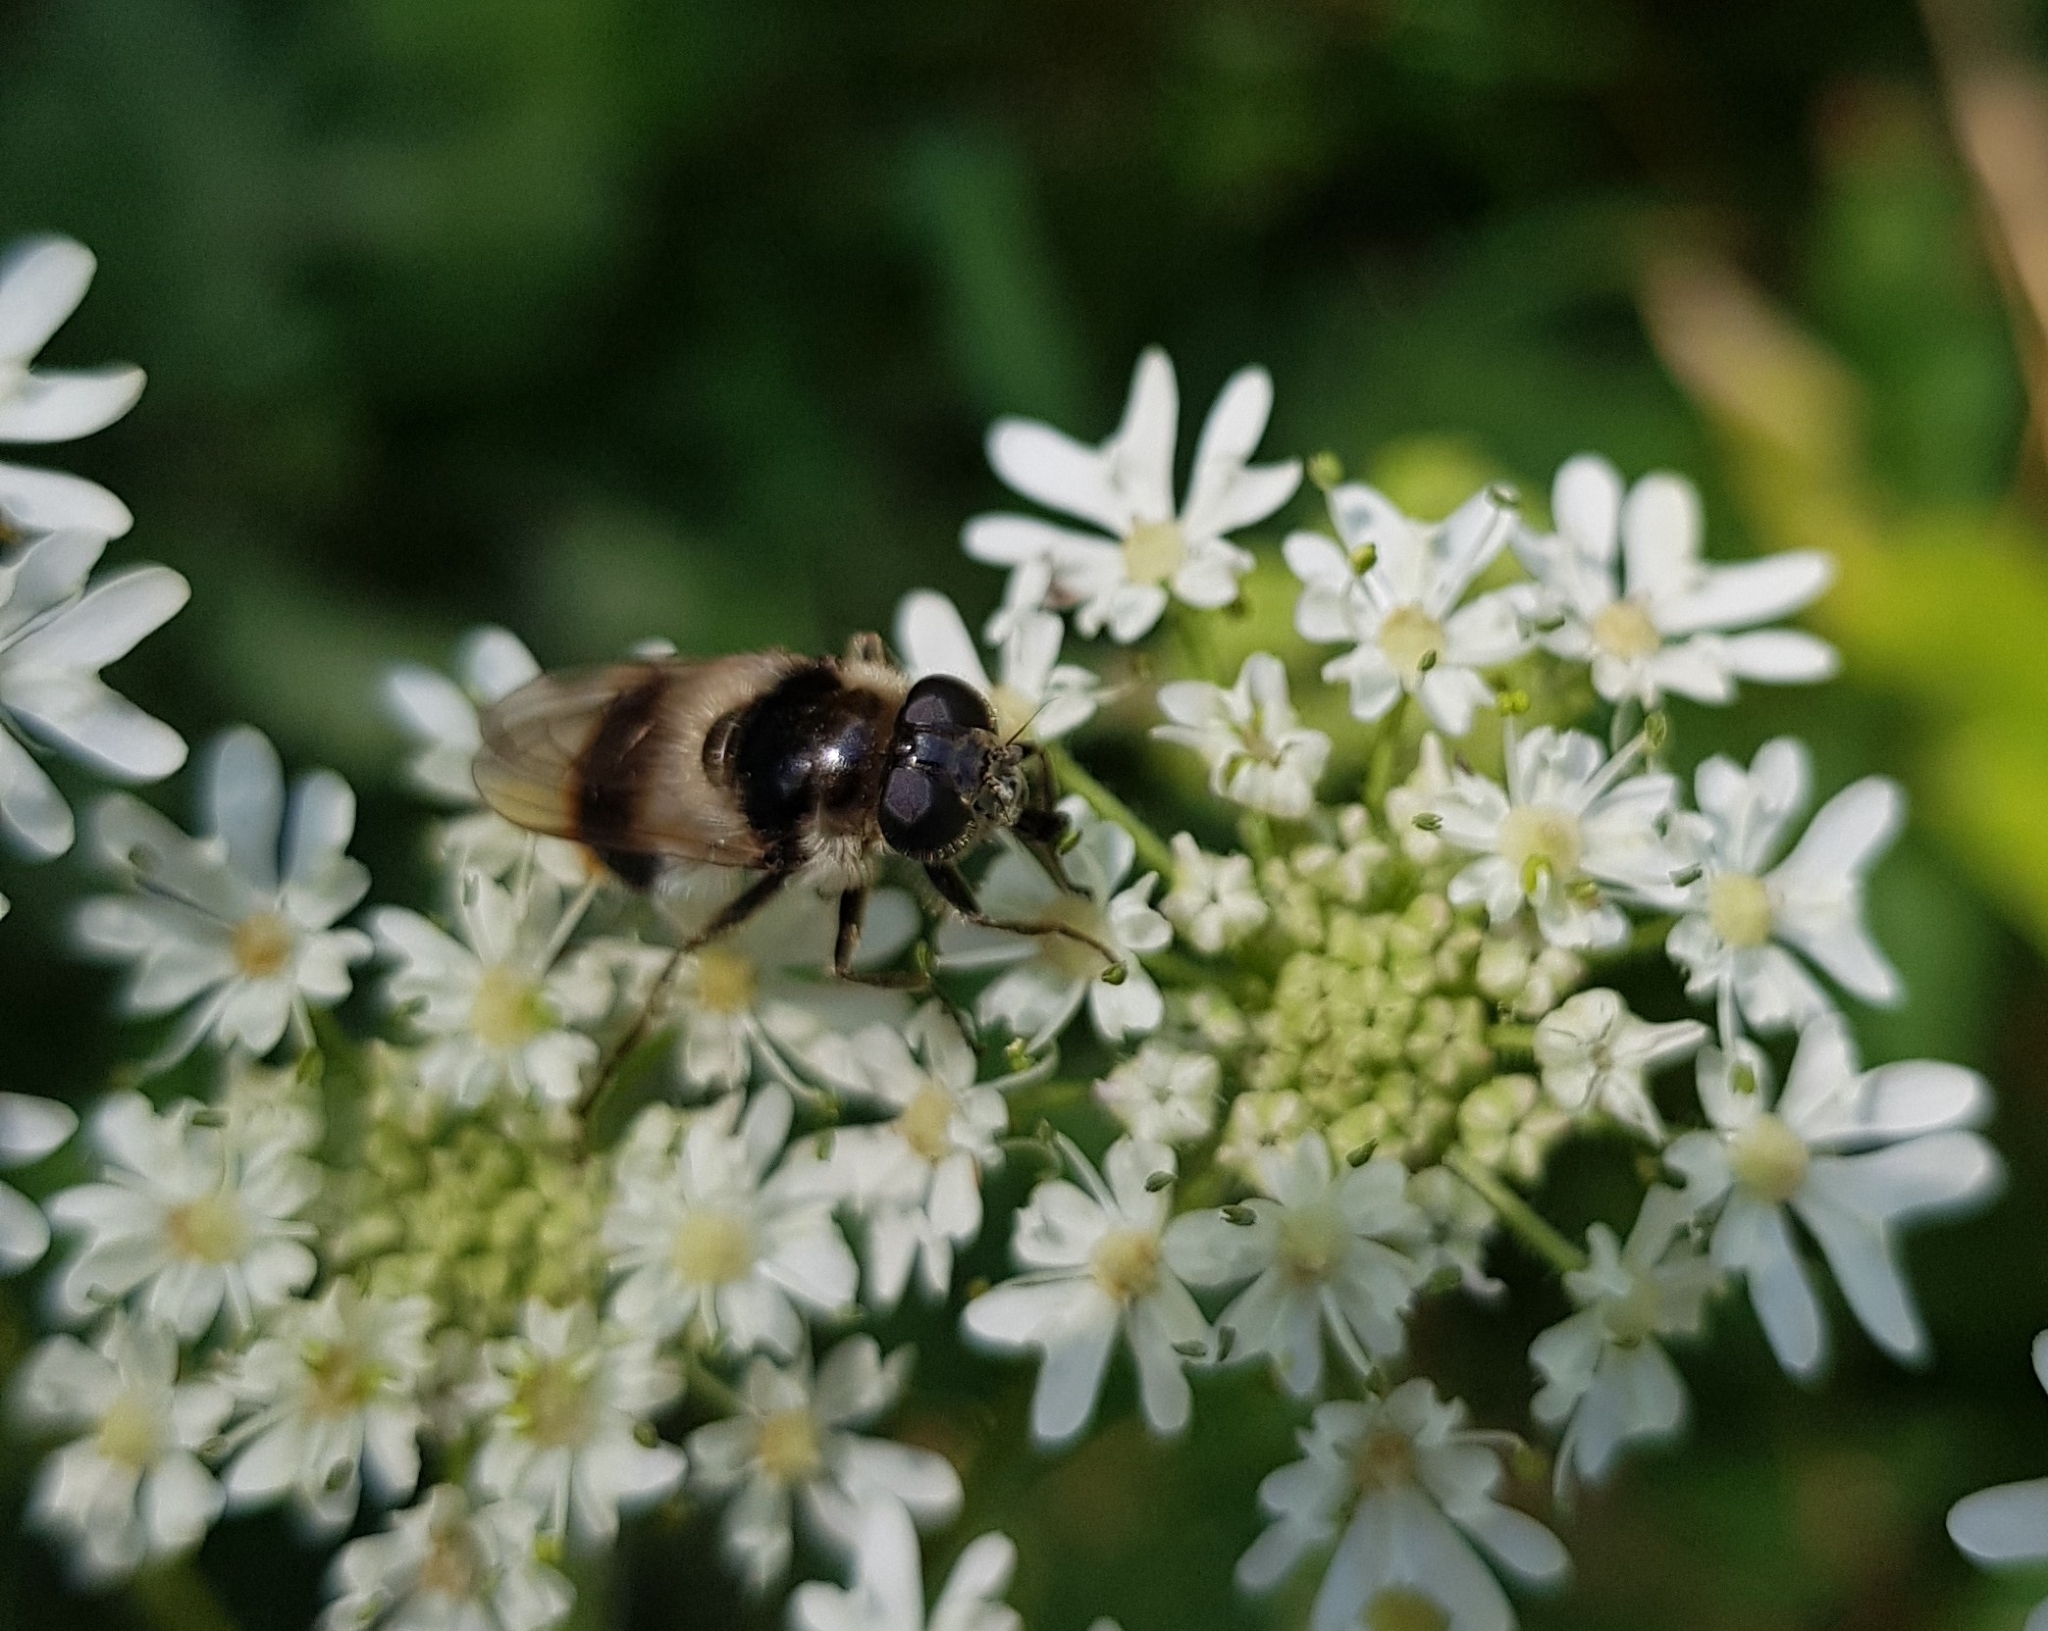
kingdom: Animalia
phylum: Arthropoda
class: Insecta
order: Diptera
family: Syrphidae
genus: Cheilosia
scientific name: Cheilosia illustrata
